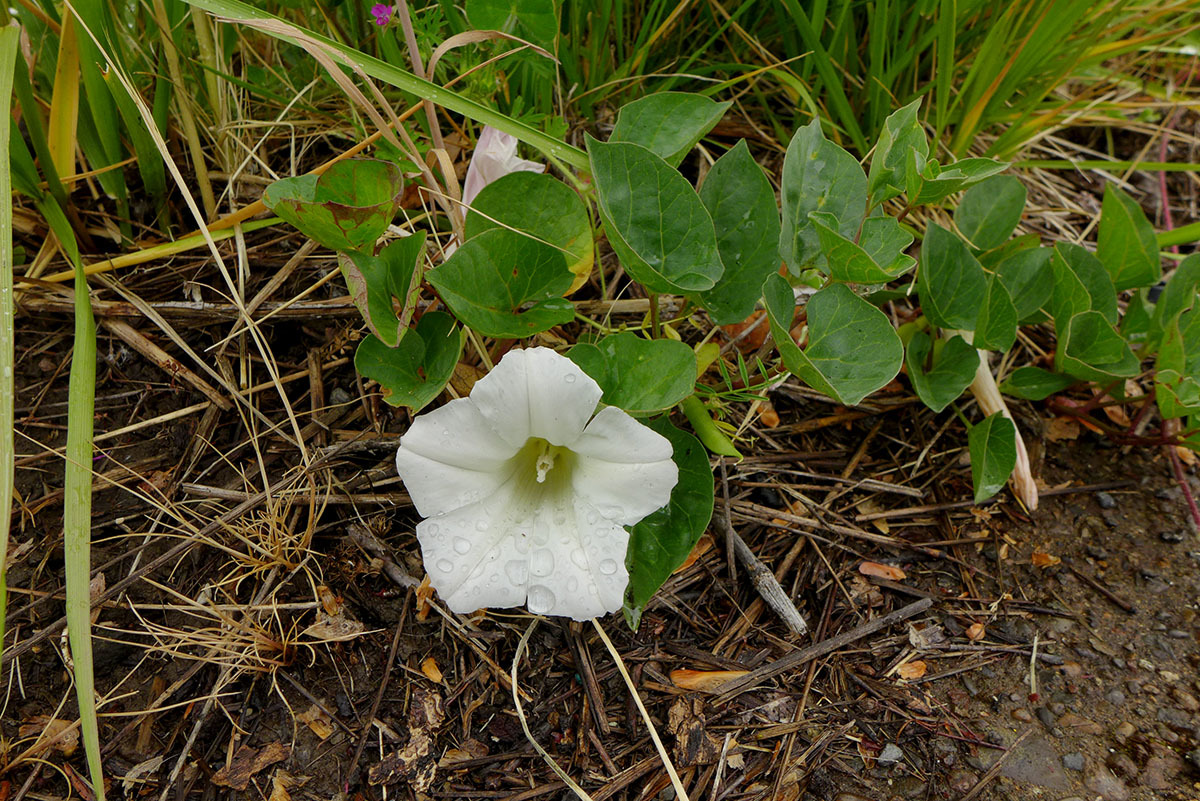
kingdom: Plantae
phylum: Tracheophyta
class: Magnoliopsida
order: Solanales
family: Convolvulaceae
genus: Calystegia
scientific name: Calystegia atriplicifolia
